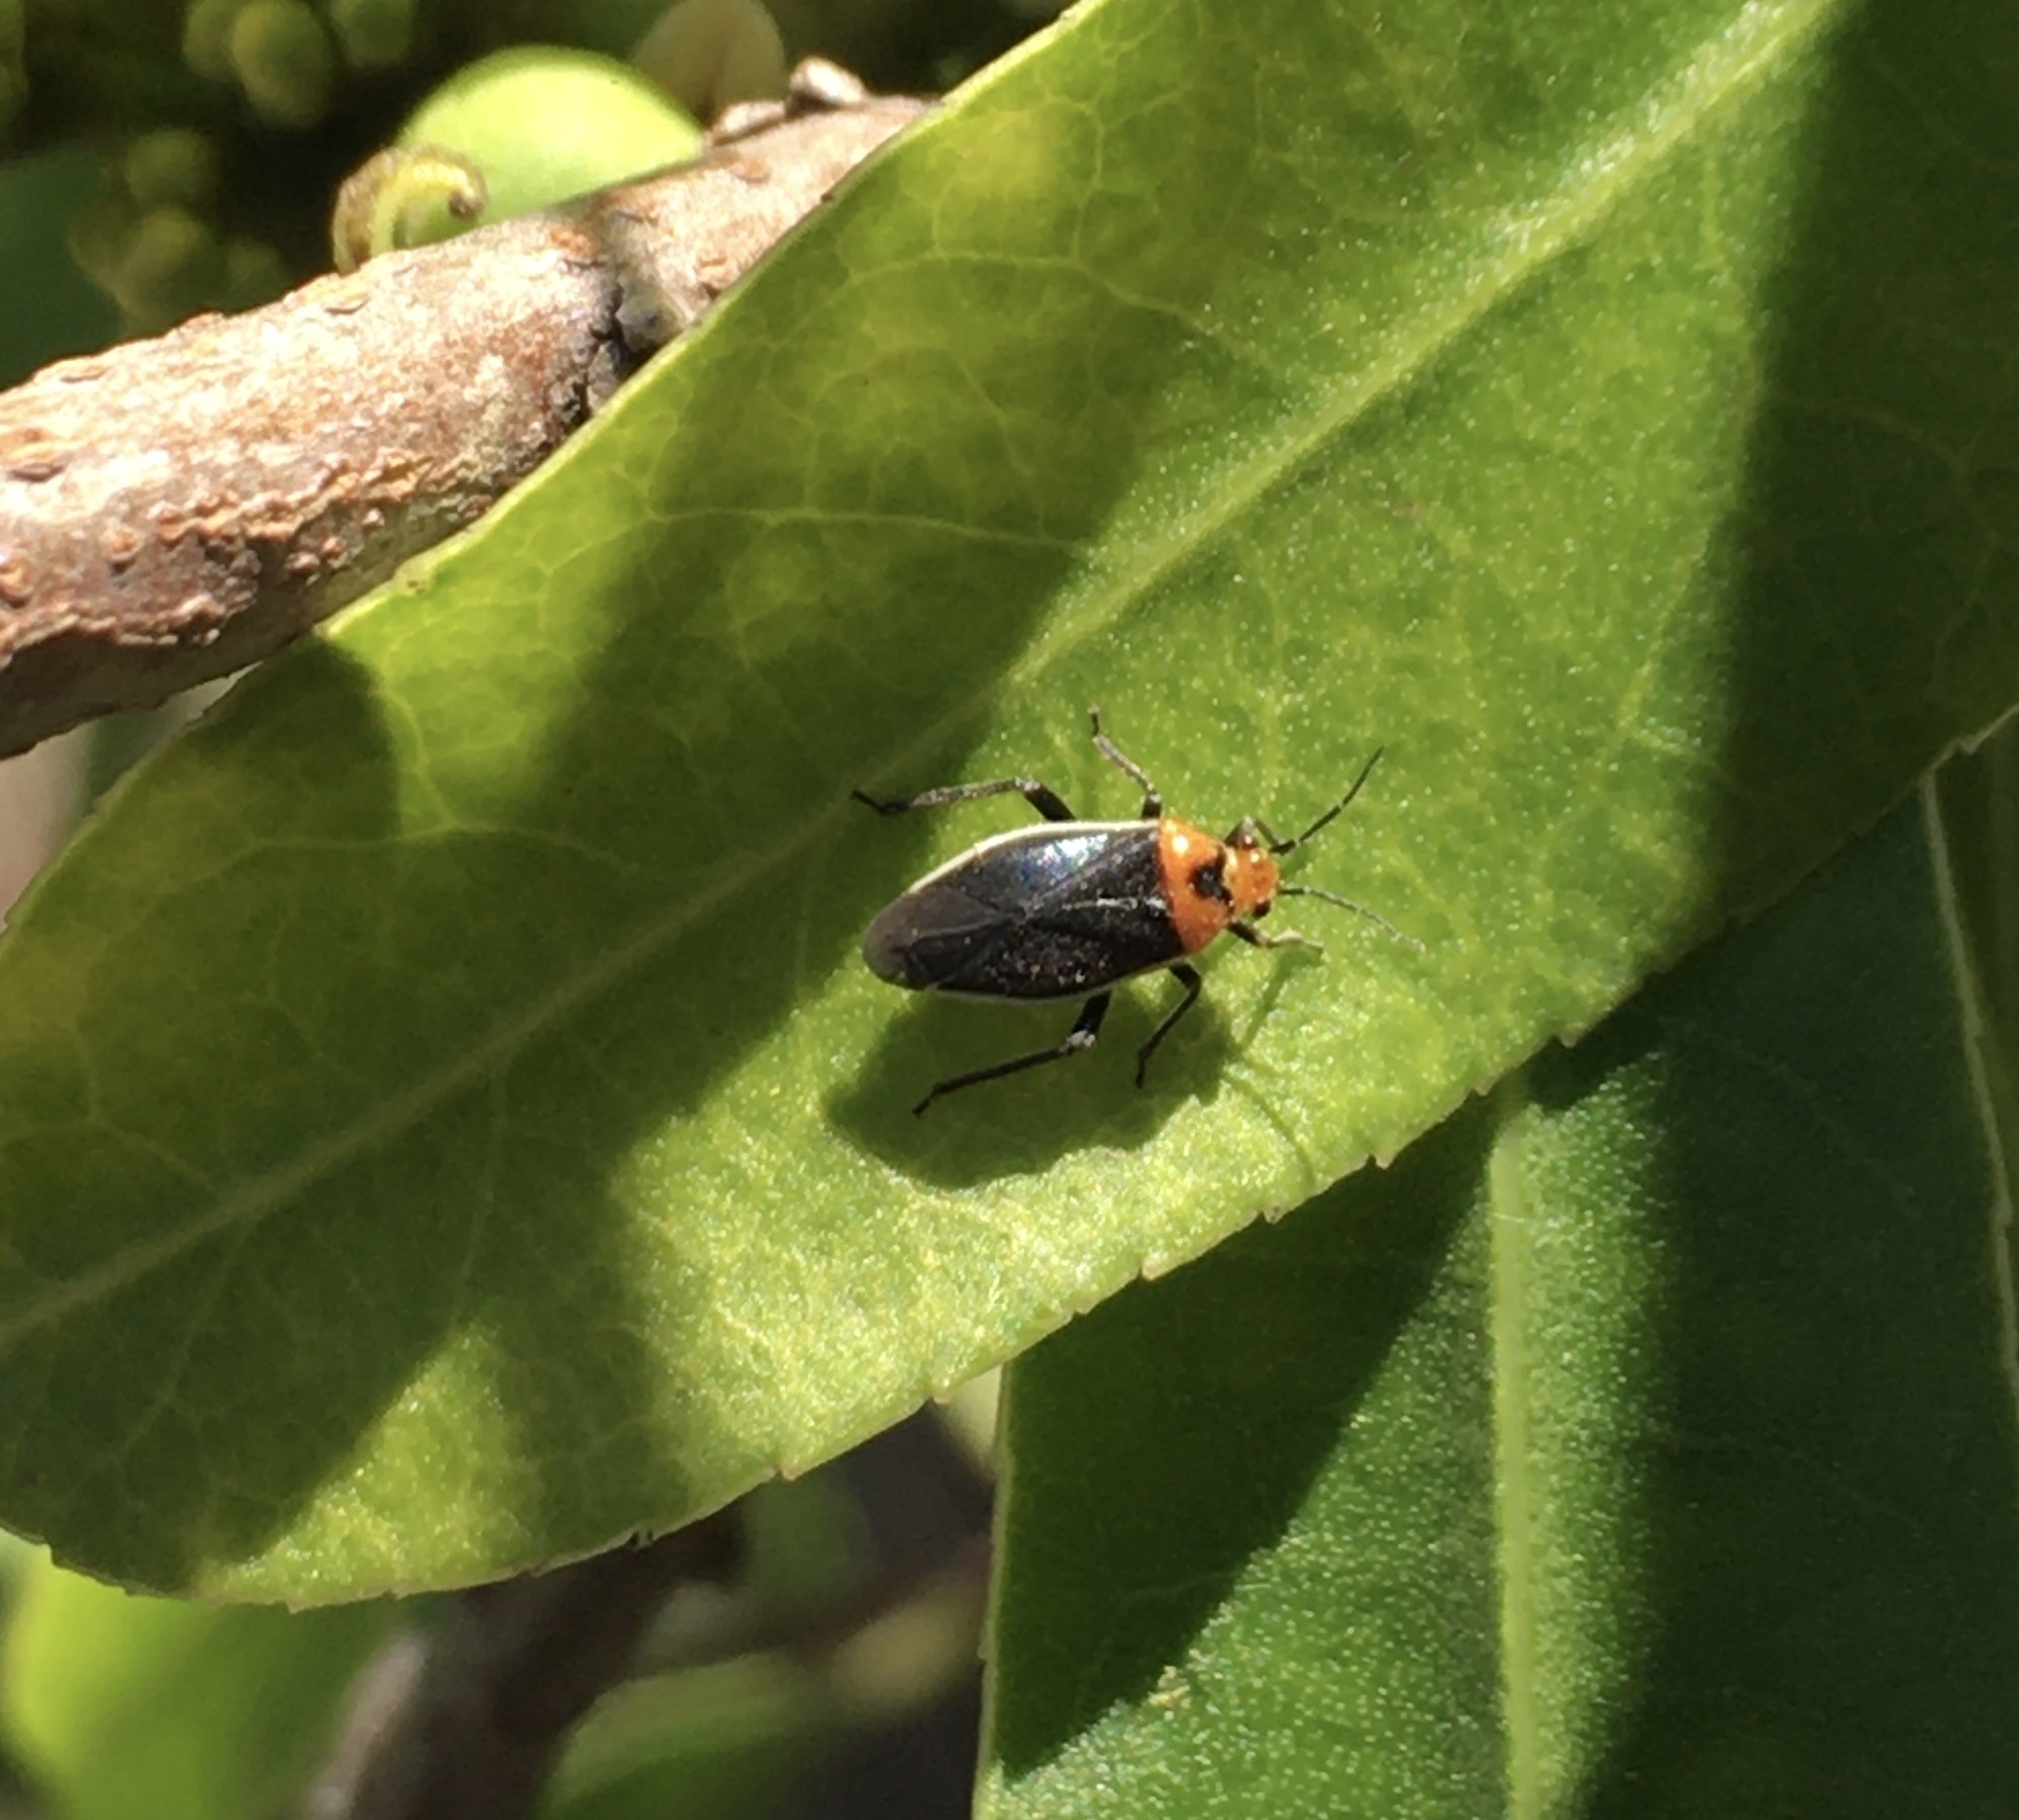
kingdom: Animalia
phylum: Arthropoda
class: Insecta
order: Hemiptera
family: Miridae
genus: Aspidobothrys
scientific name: Aspidobothrys ruficeps
